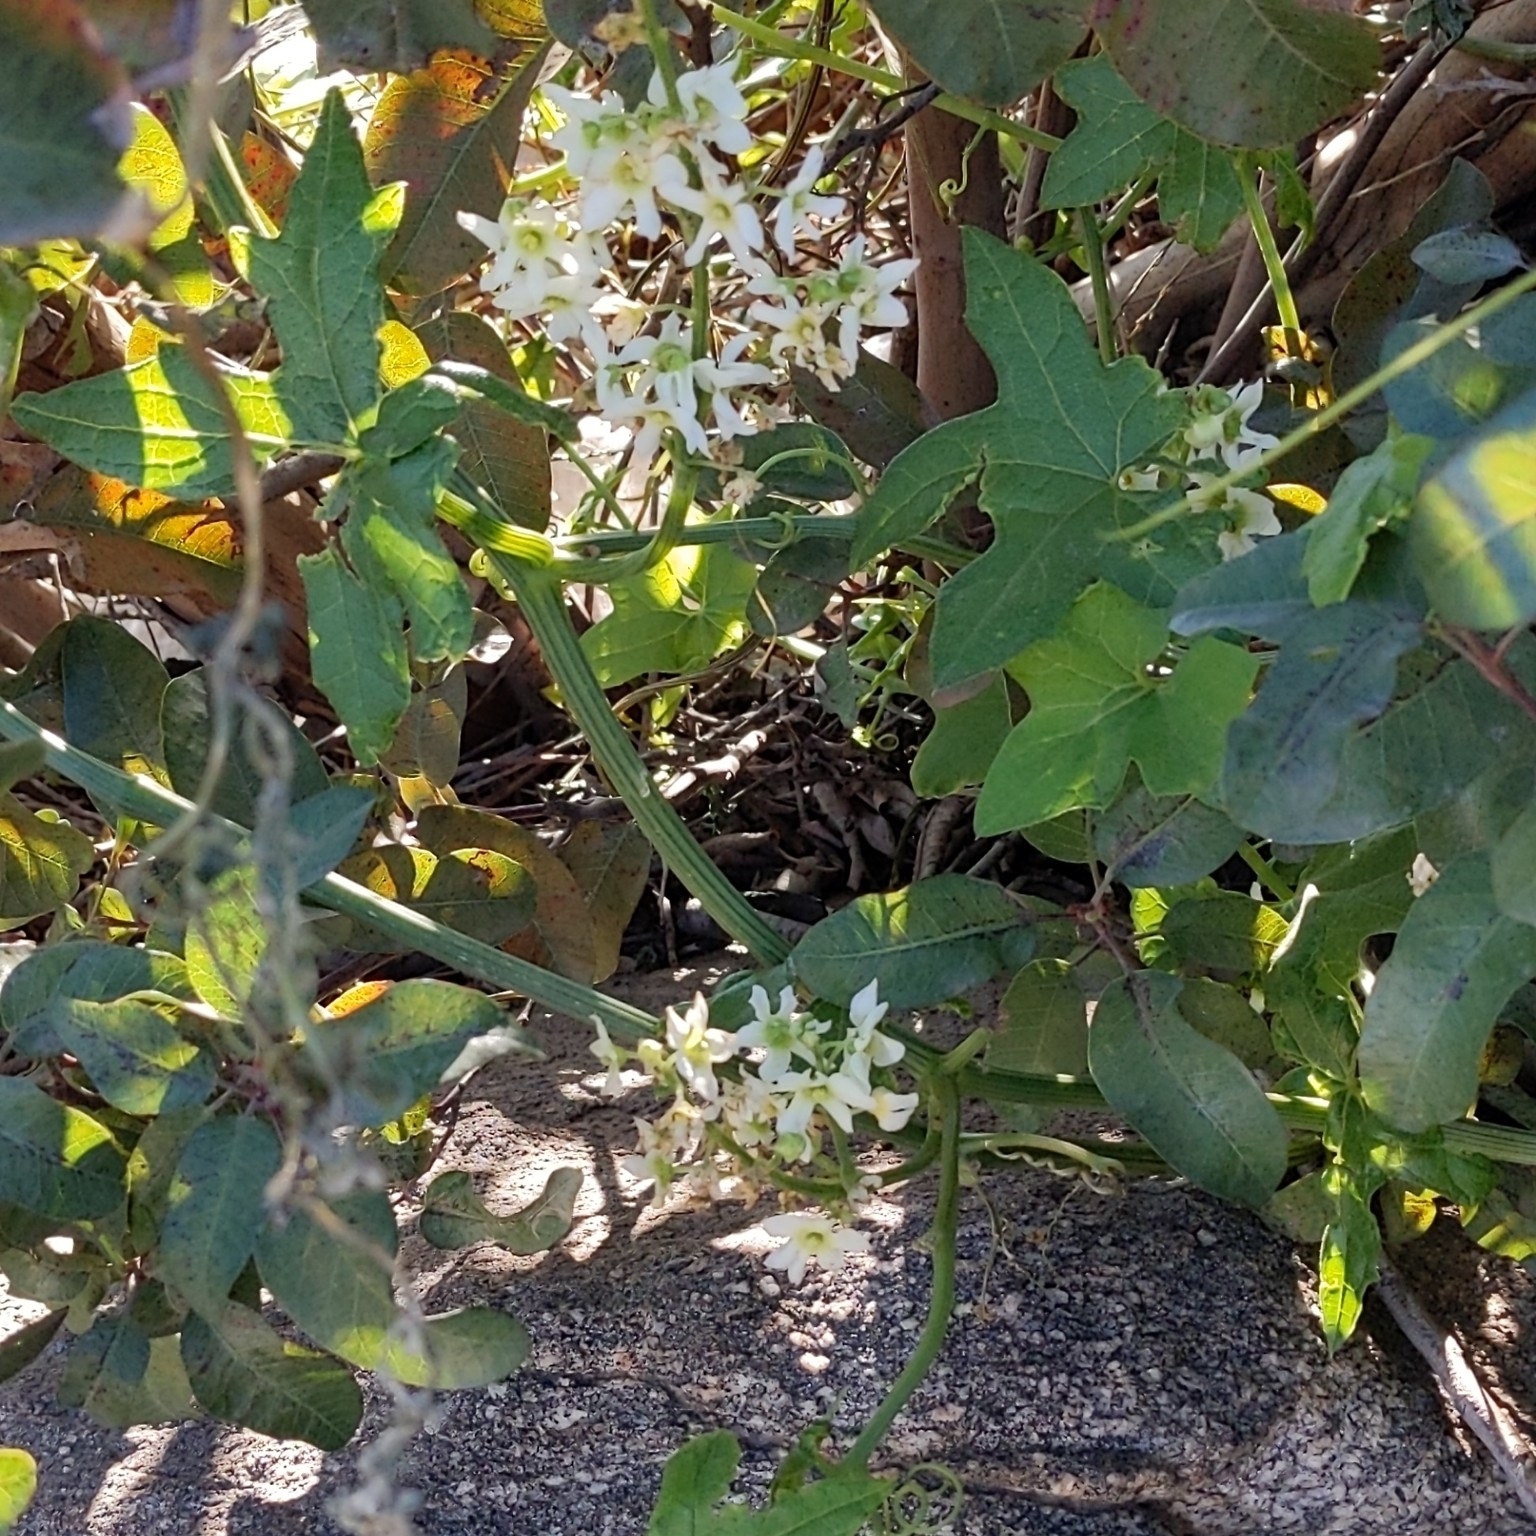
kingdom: Plantae
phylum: Tracheophyta
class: Magnoliopsida
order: Cucurbitales
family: Cucurbitaceae
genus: Marah
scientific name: Marah macrocarpa
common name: Cucamonga manroot
